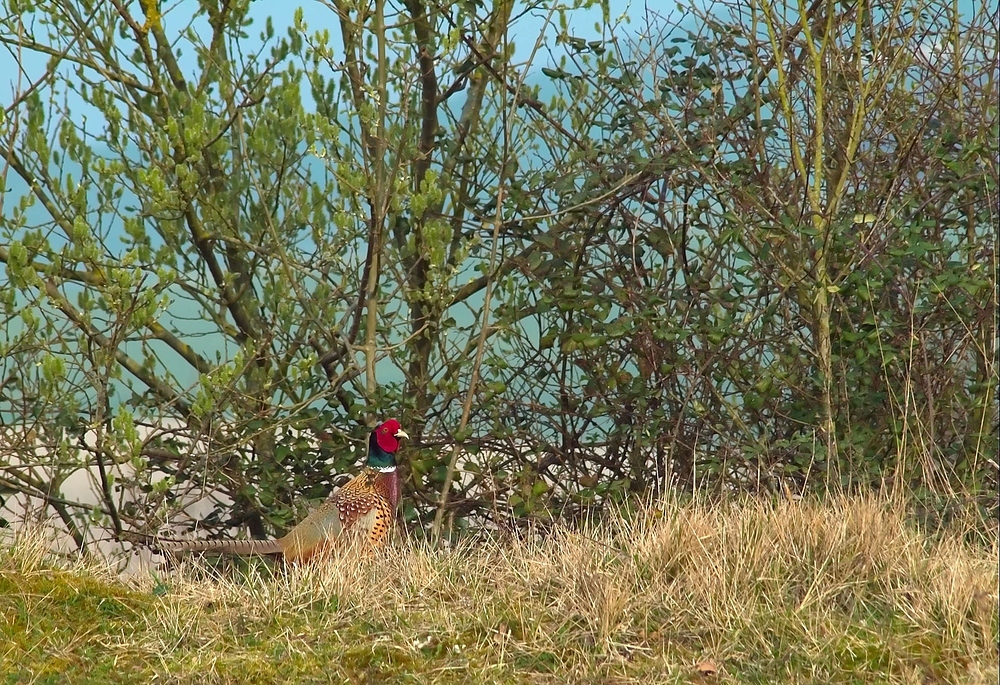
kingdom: Animalia
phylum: Chordata
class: Aves
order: Galliformes
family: Phasianidae
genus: Phasianus
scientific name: Phasianus colchicus
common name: Common pheasant
